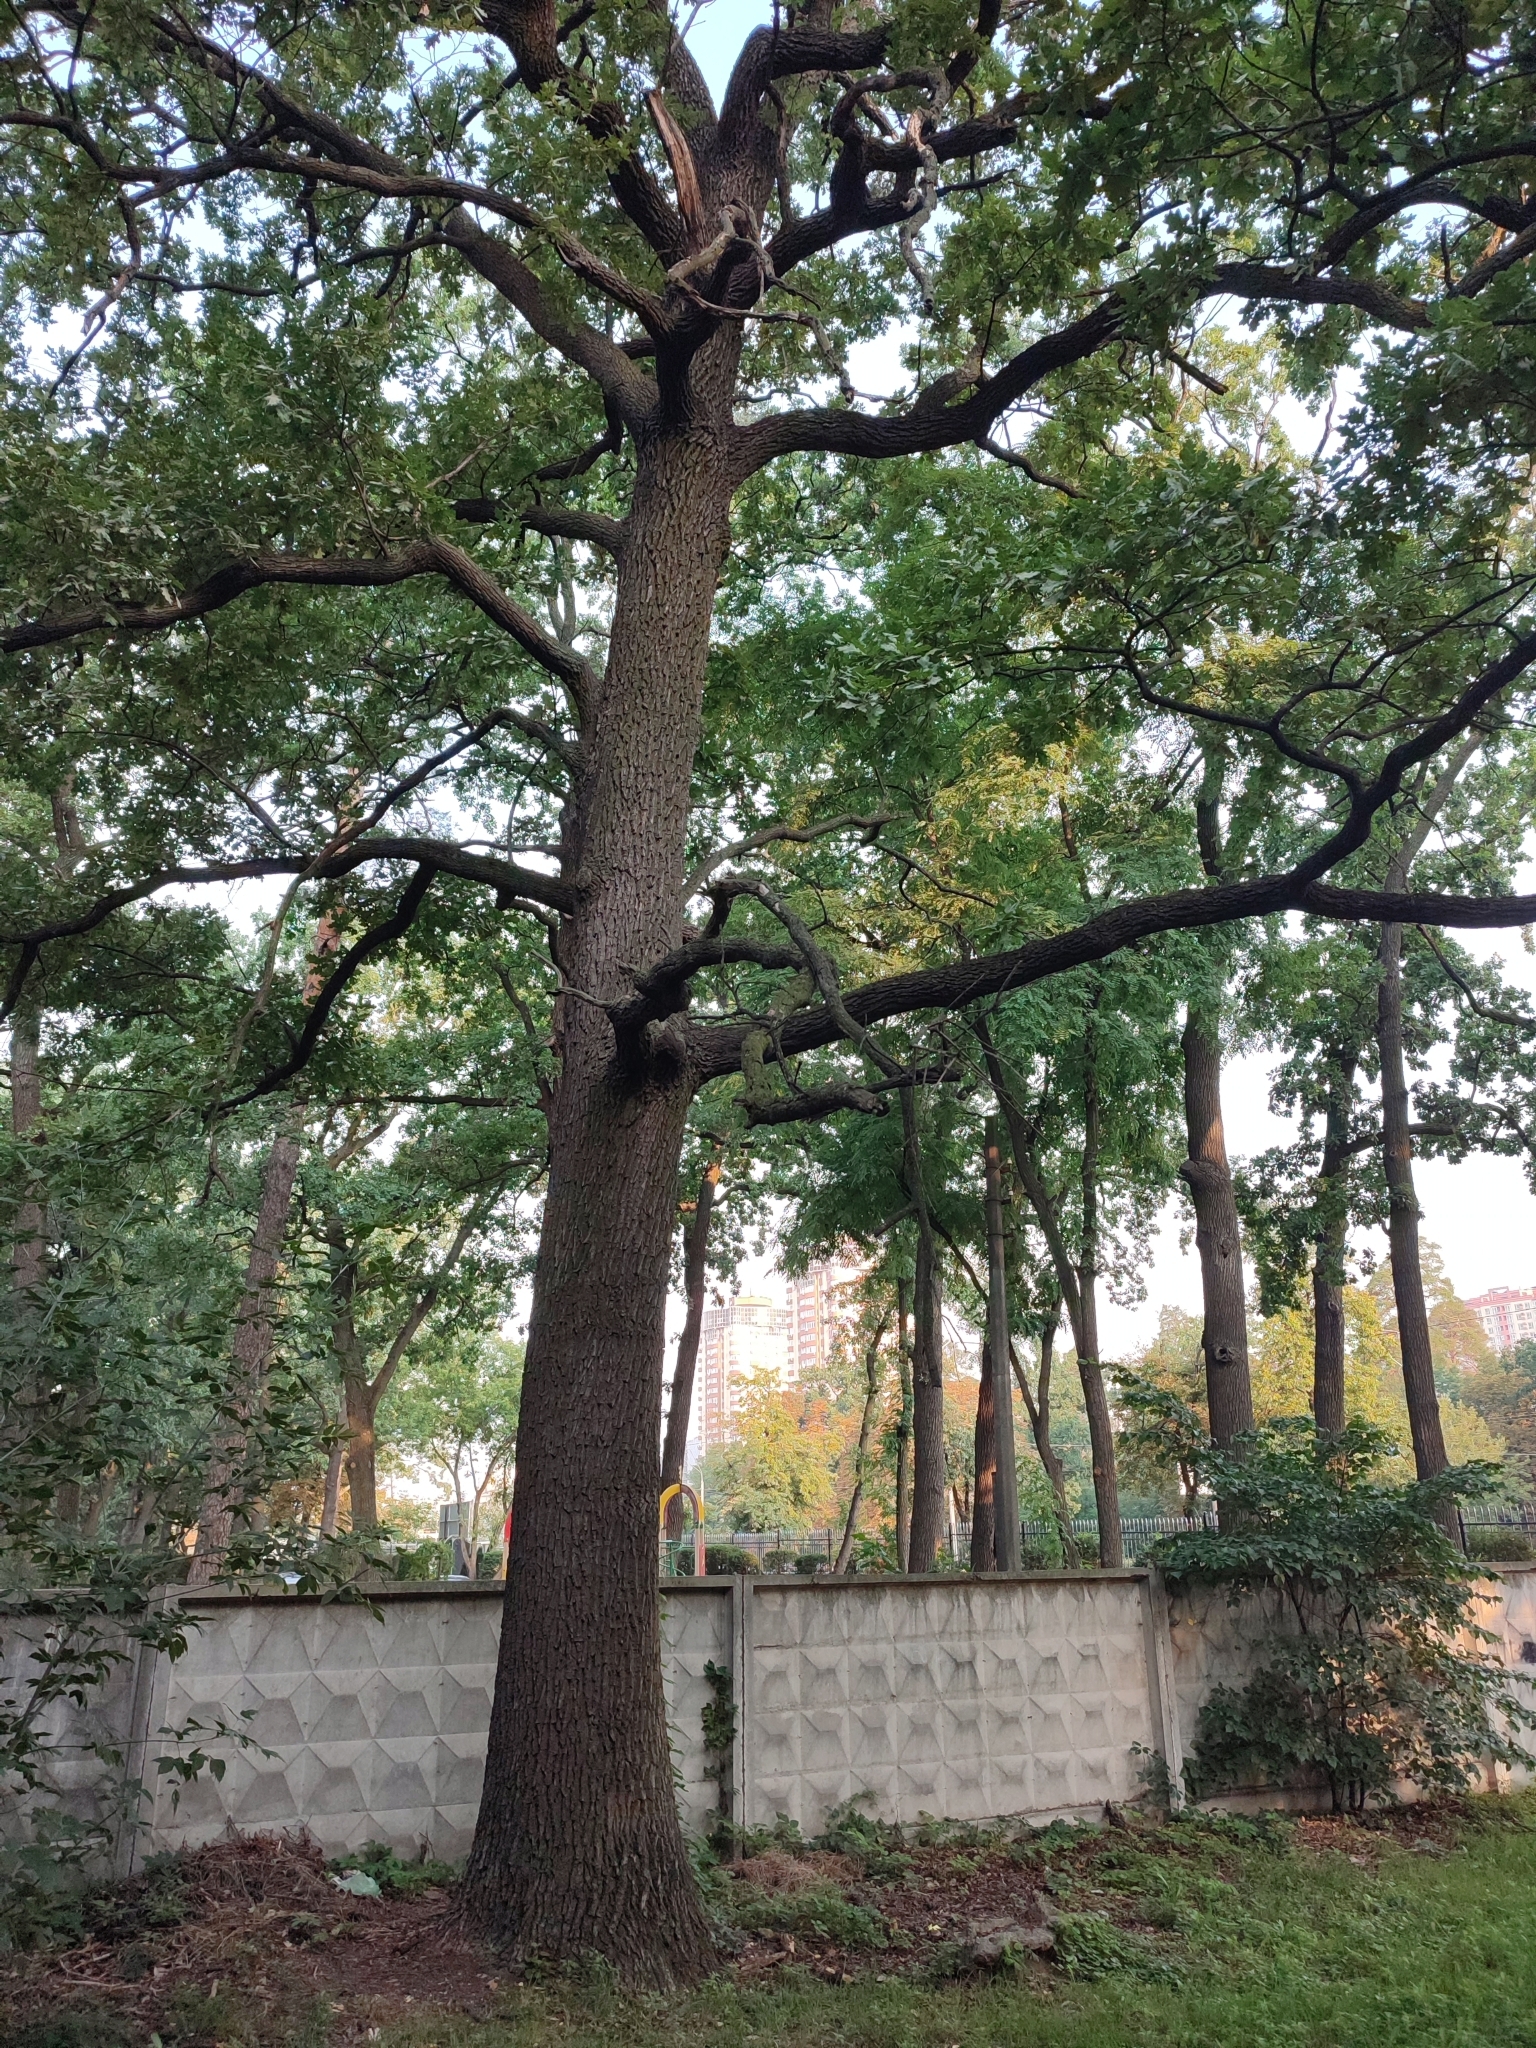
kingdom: Plantae
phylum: Tracheophyta
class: Magnoliopsida
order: Fagales
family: Fagaceae
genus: Quercus
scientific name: Quercus robur
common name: Pedunculate oak
